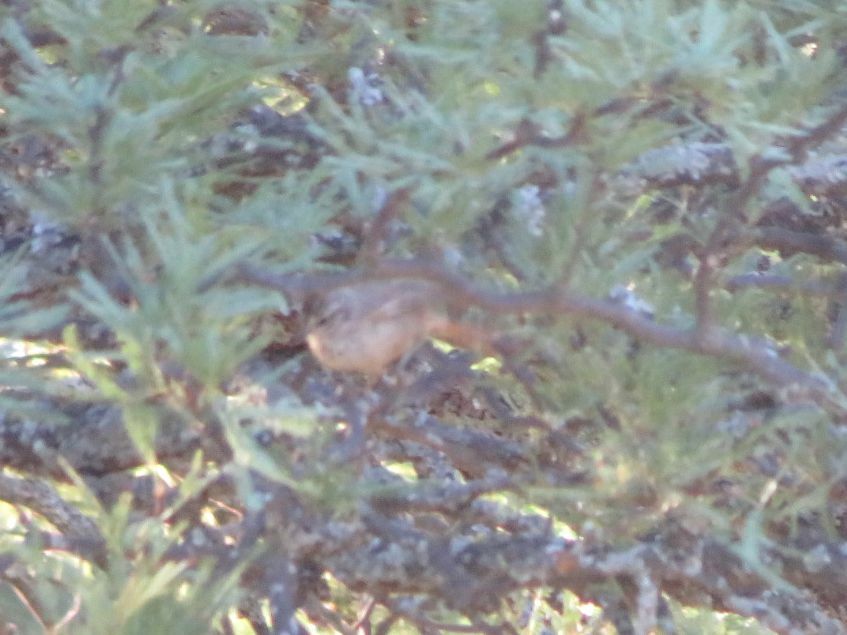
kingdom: Animalia
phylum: Chordata
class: Aves
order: Passeriformes
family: Furnariidae
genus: Leptasthenura
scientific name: Leptasthenura platensis
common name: Tufted tit-spinetail
